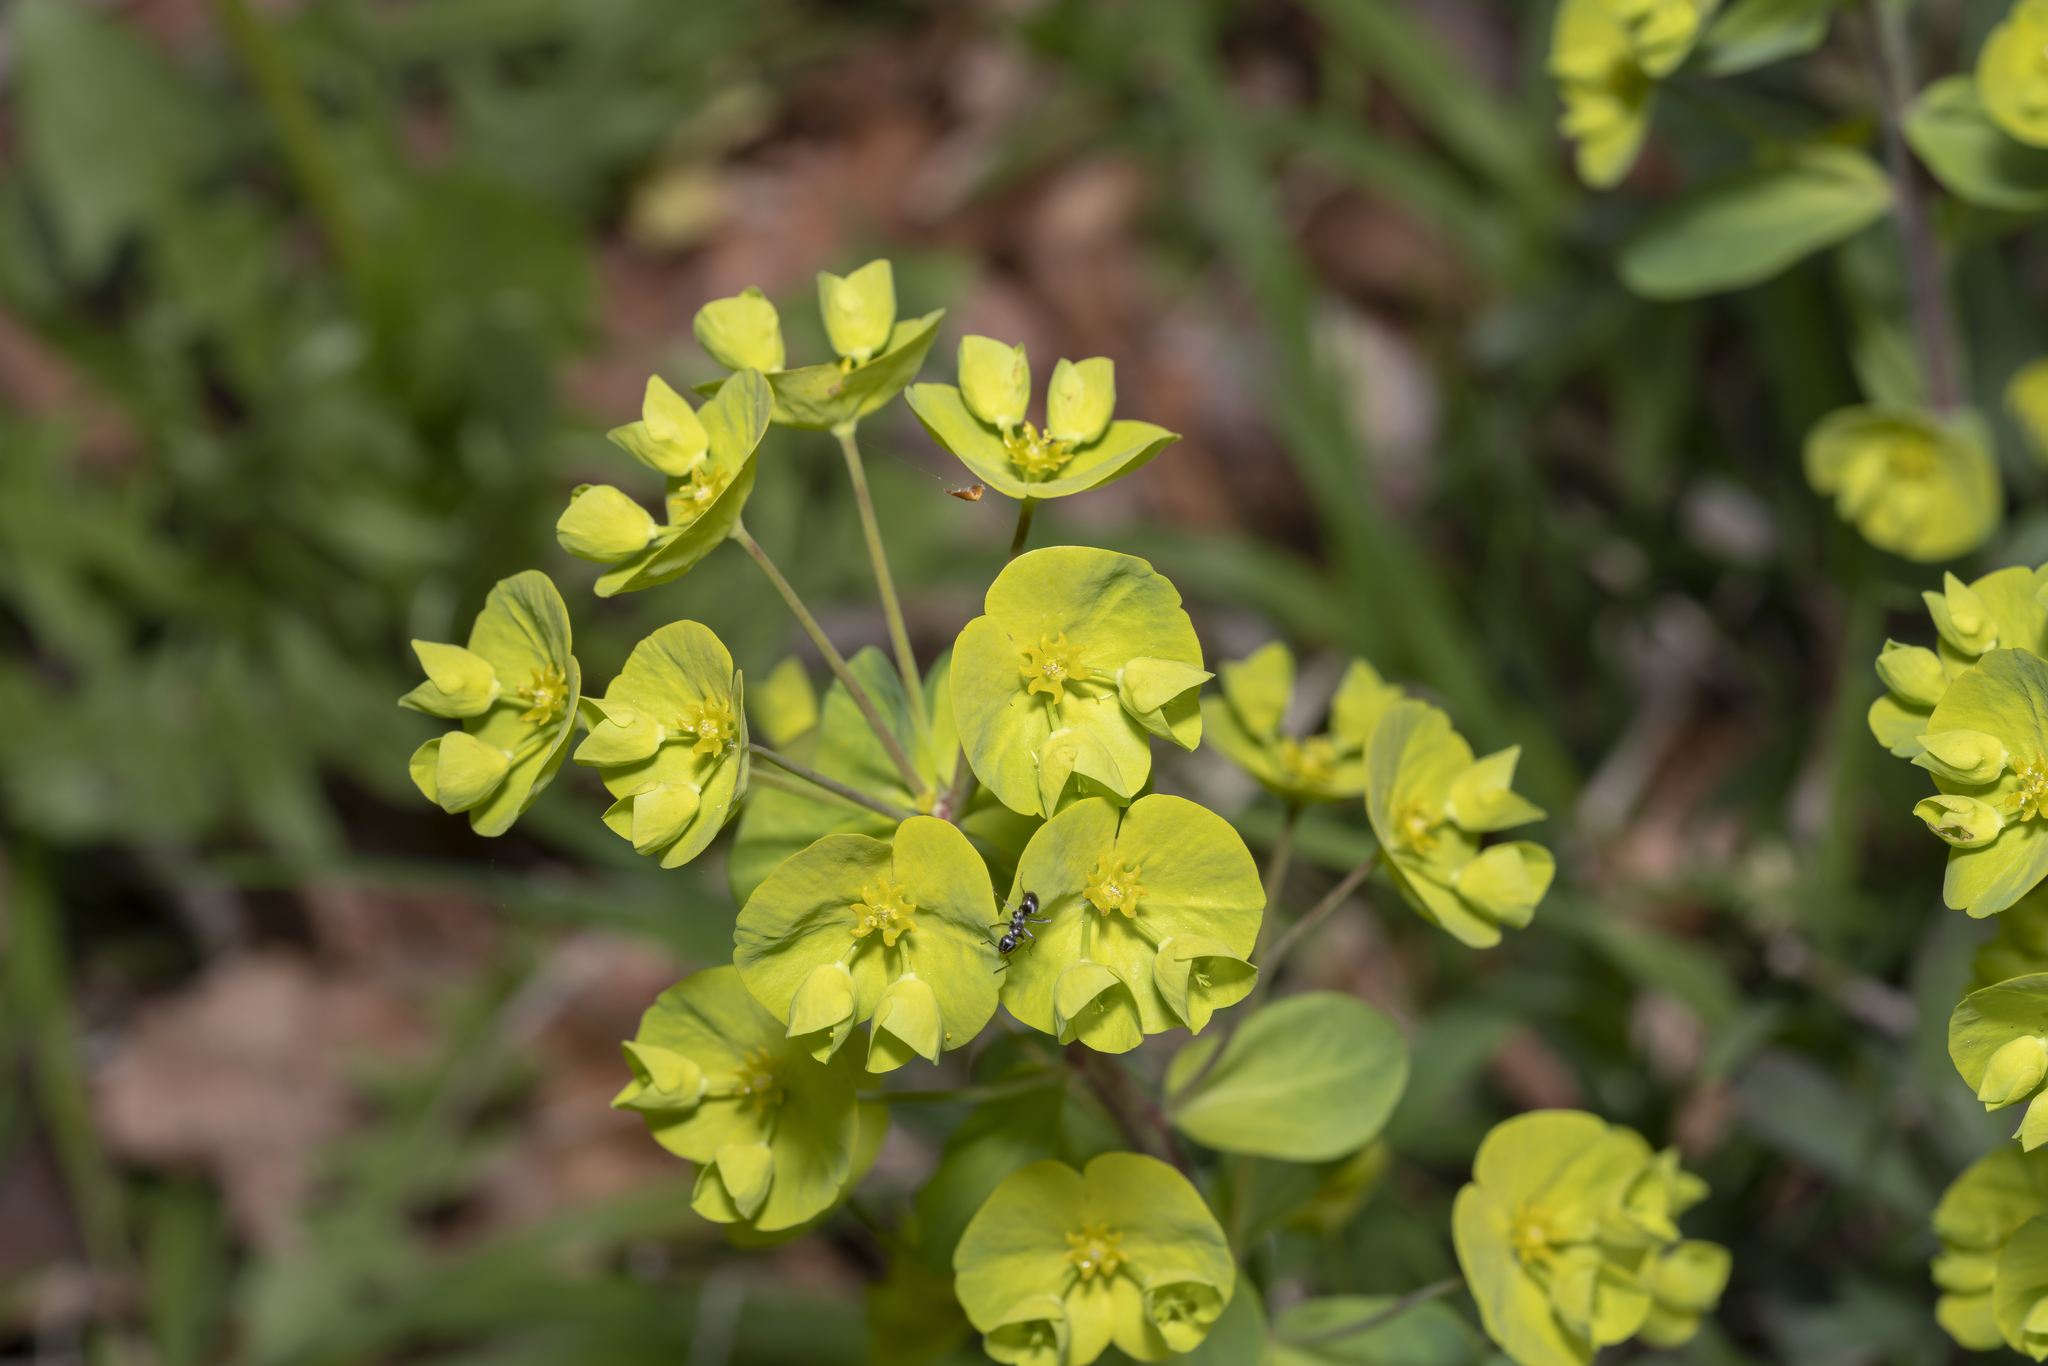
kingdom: Plantae
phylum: Tracheophyta
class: Magnoliopsida
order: Malpighiales
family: Euphorbiaceae
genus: Euphorbia
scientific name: Euphorbia amygdaloides
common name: Wood spurge
